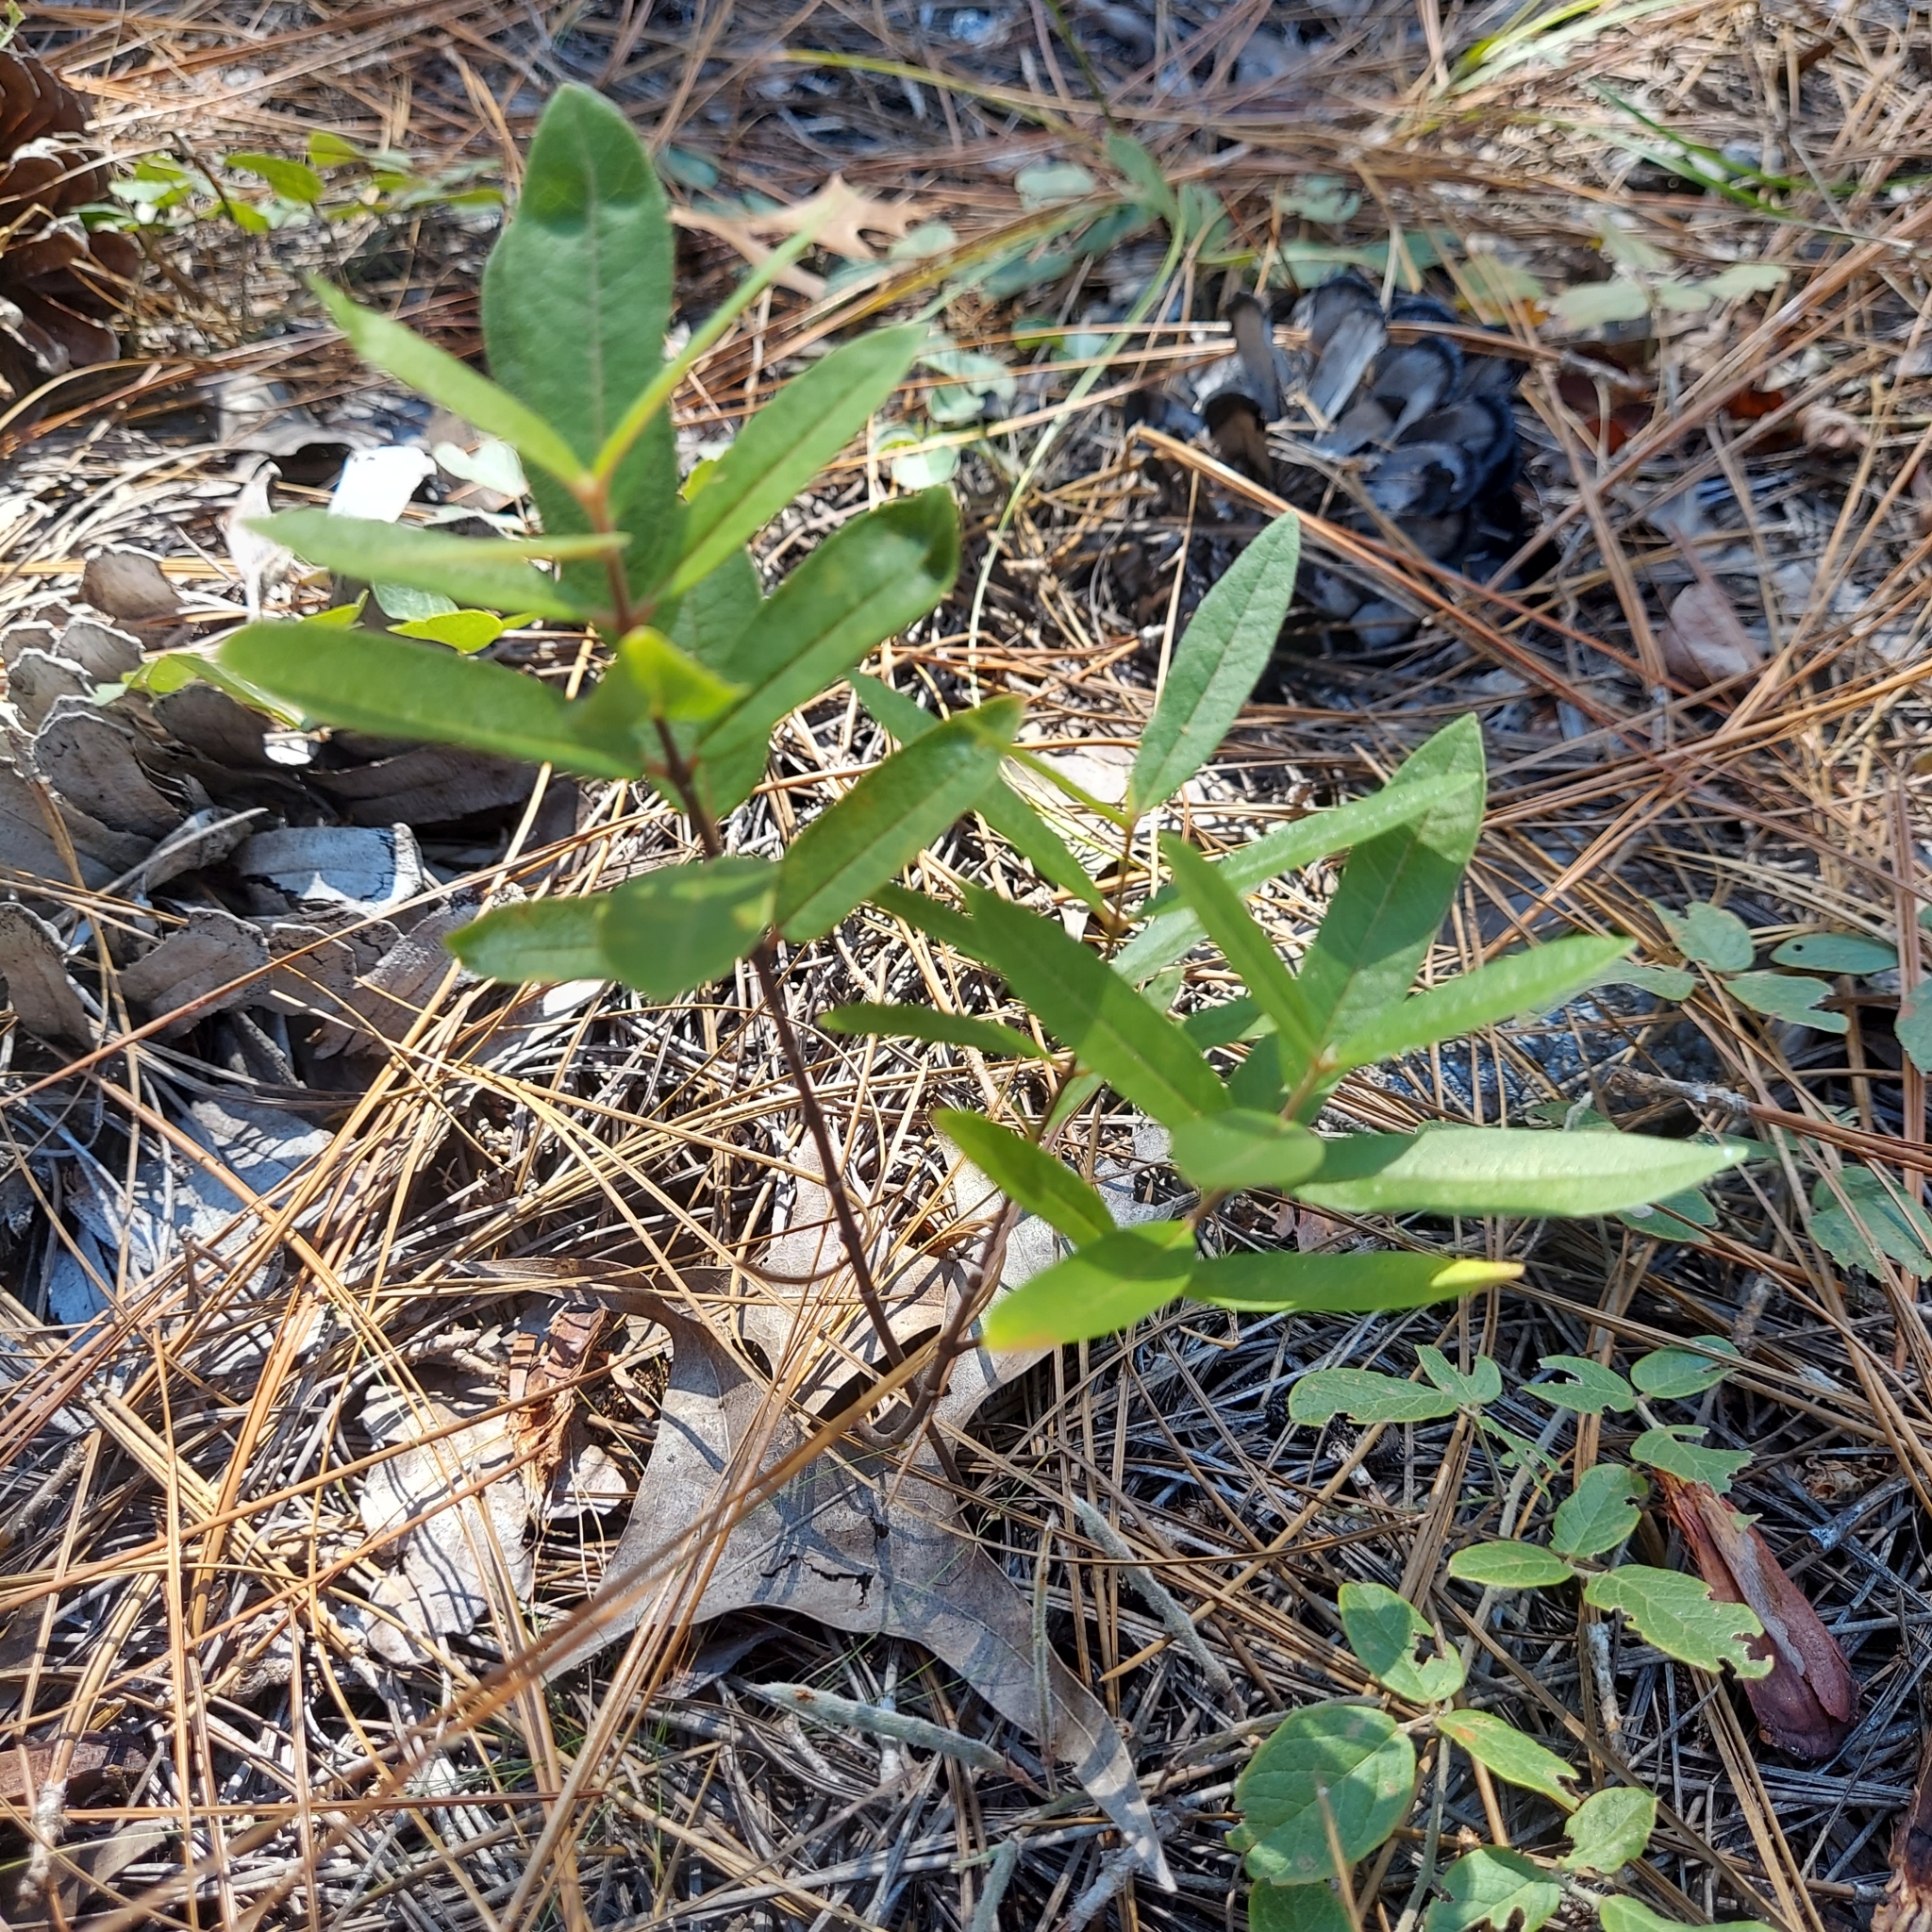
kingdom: Plantae
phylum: Tracheophyta
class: Magnoliopsida
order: Gentianales
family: Apocynaceae
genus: Asclepias
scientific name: Asclepias tomentosa
